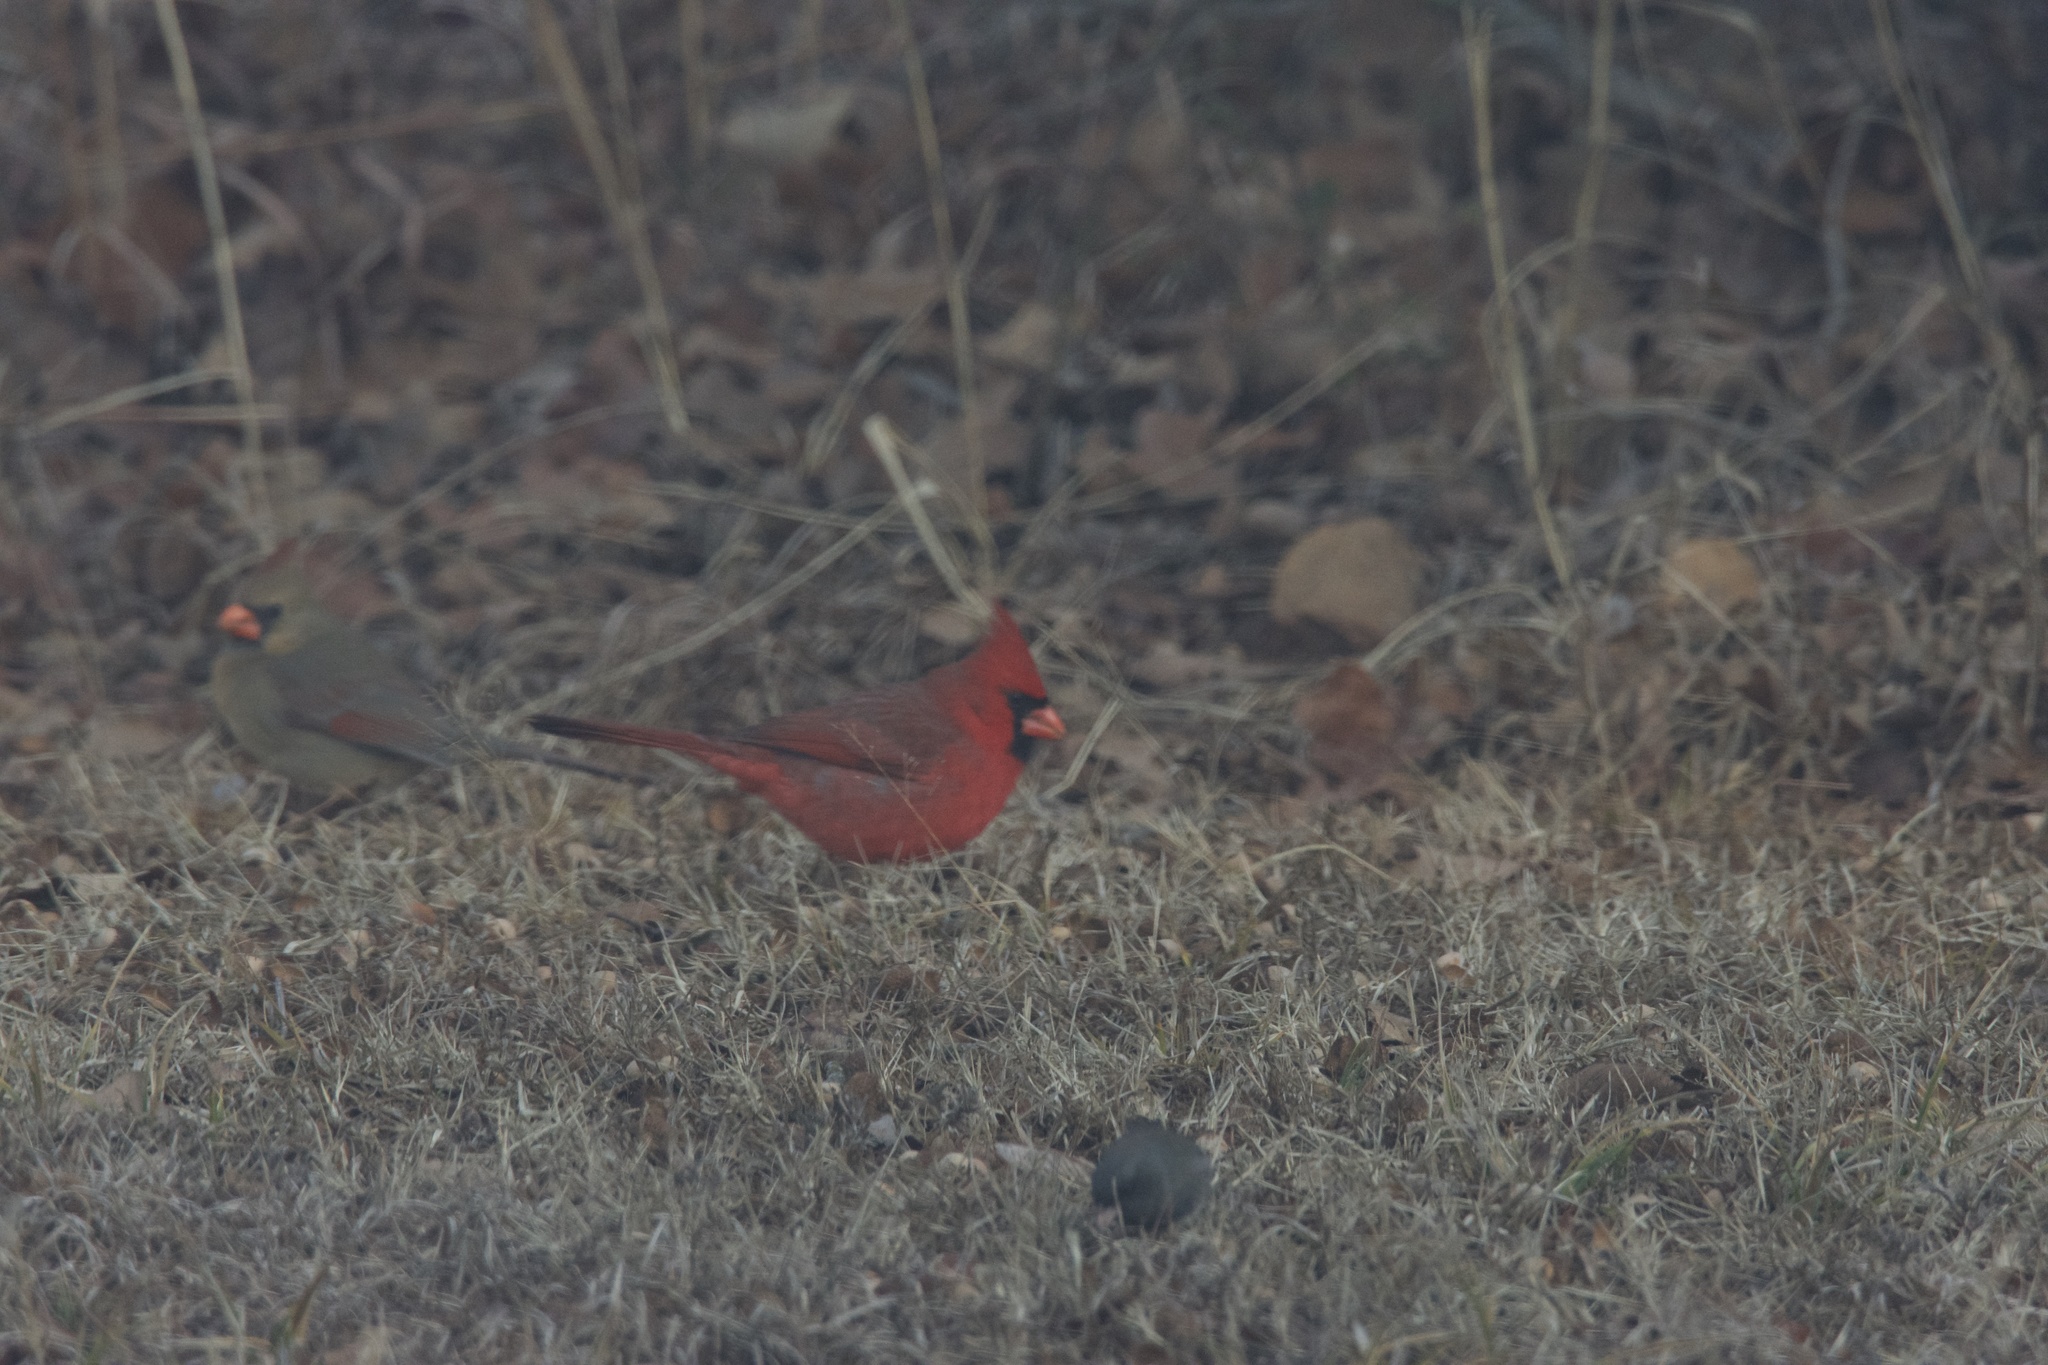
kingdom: Animalia
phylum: Chordata
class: Aves
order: Passeriformes
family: Cardinalidae
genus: Cardinalis
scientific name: Cardinalis cardinalis
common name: Northern cardinal
